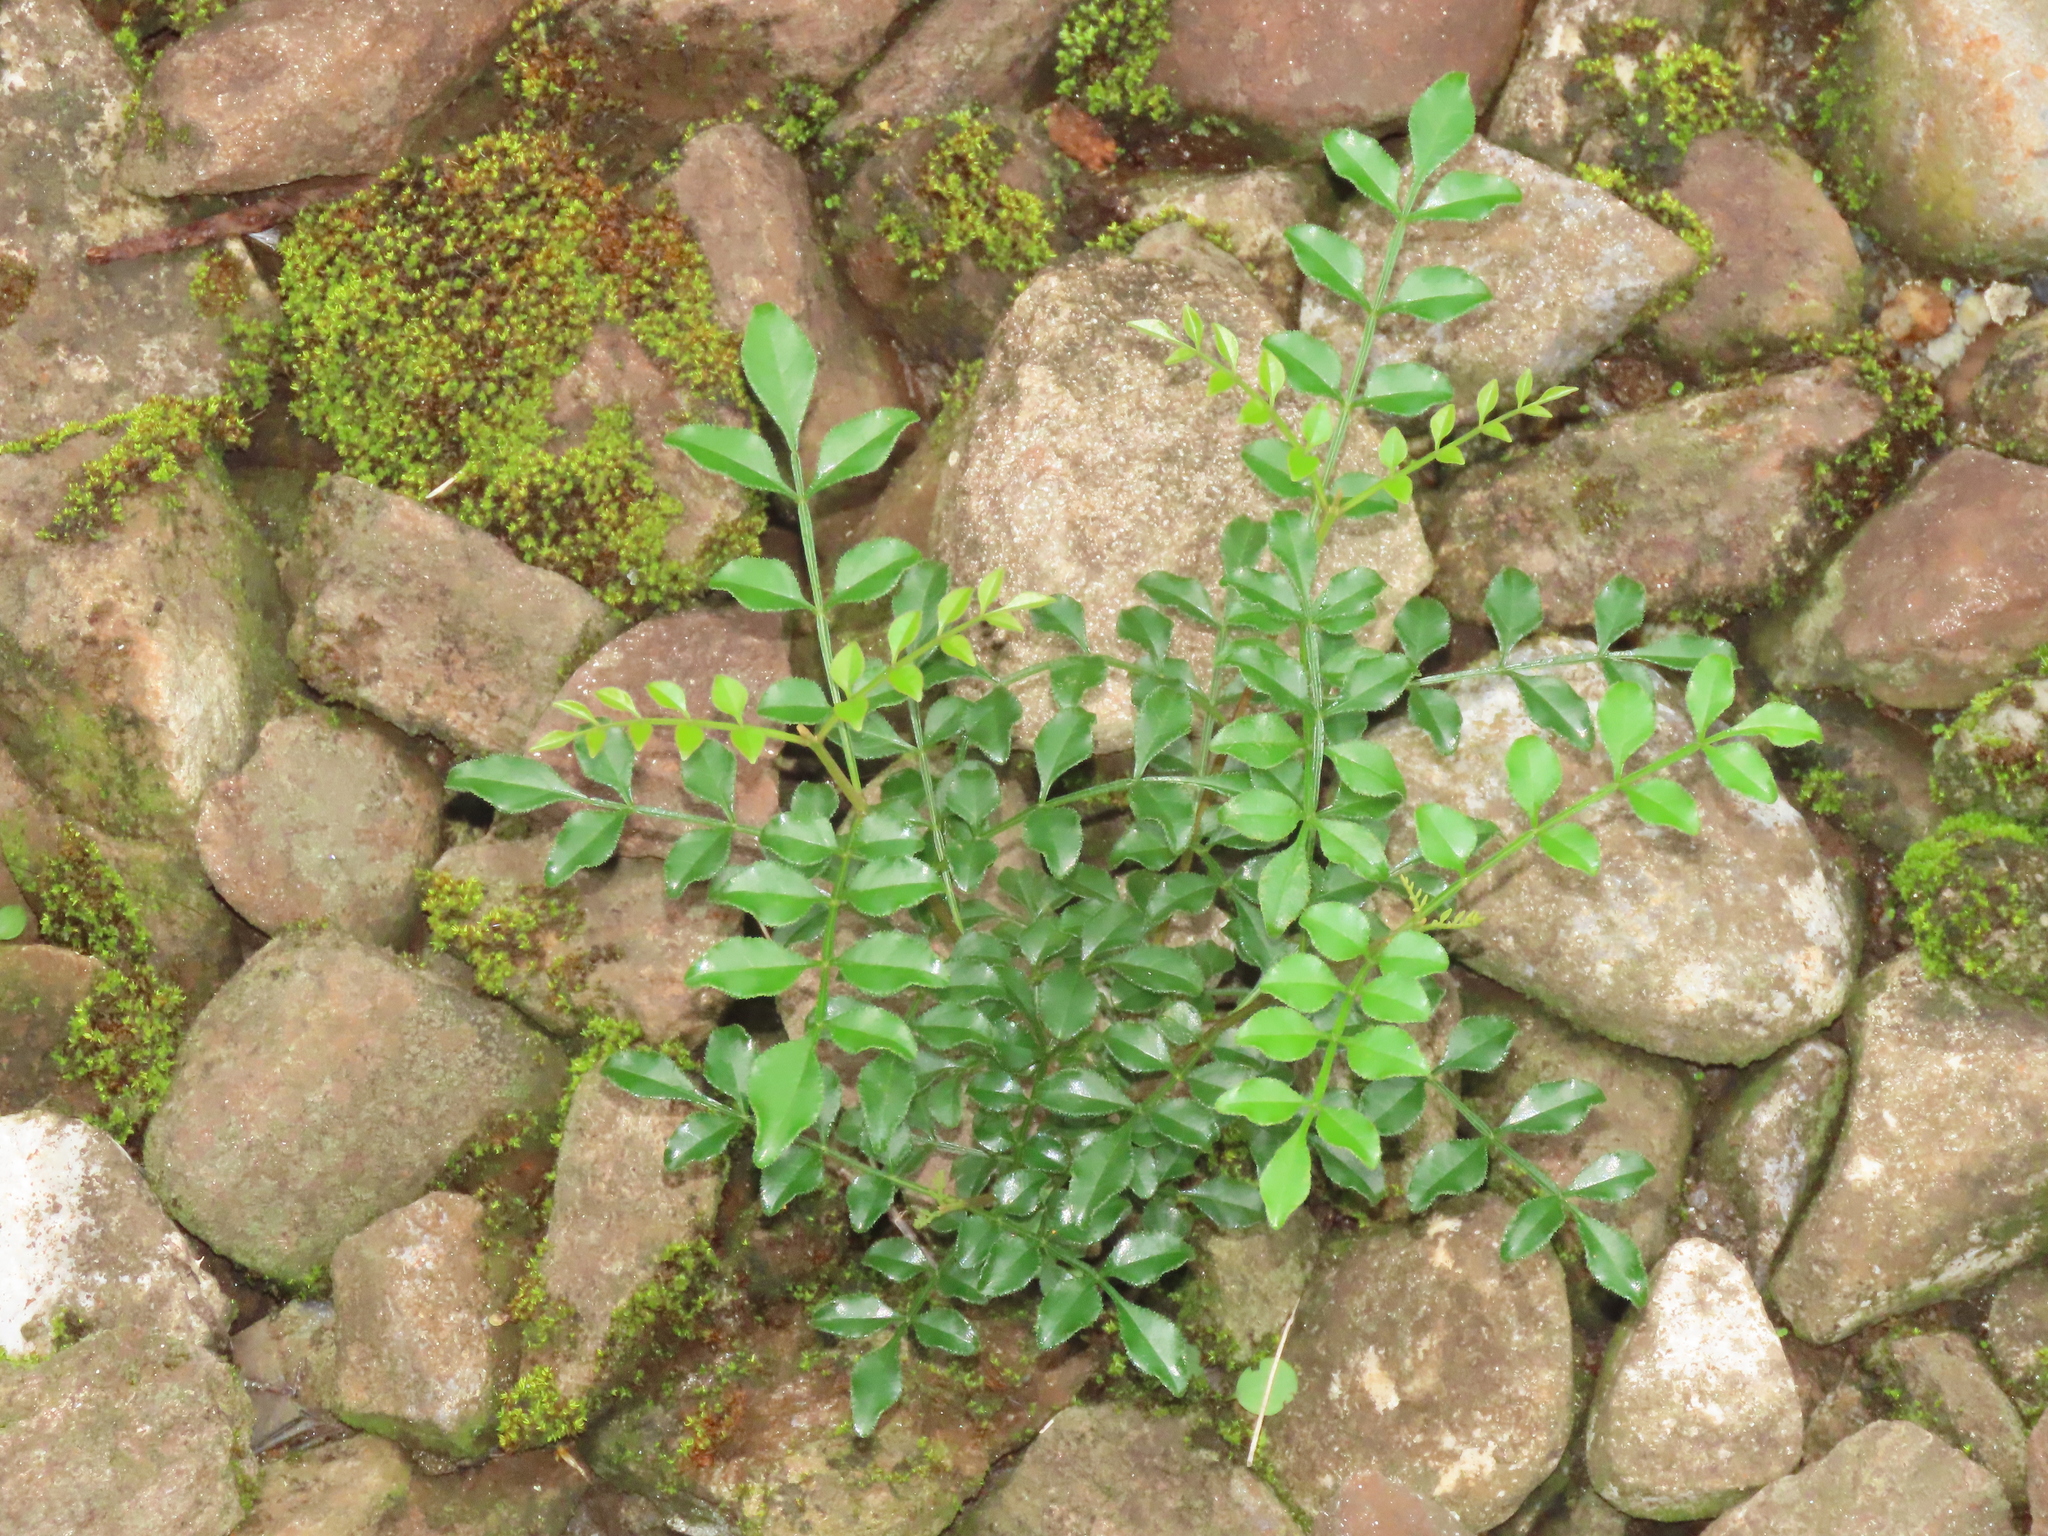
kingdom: Plantae
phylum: Tracheophyta
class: Magnoliopsida
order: Lamiales
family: Oleaceae
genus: Fraxinus
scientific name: Fraxinus griffithii
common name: Himalayan ash
